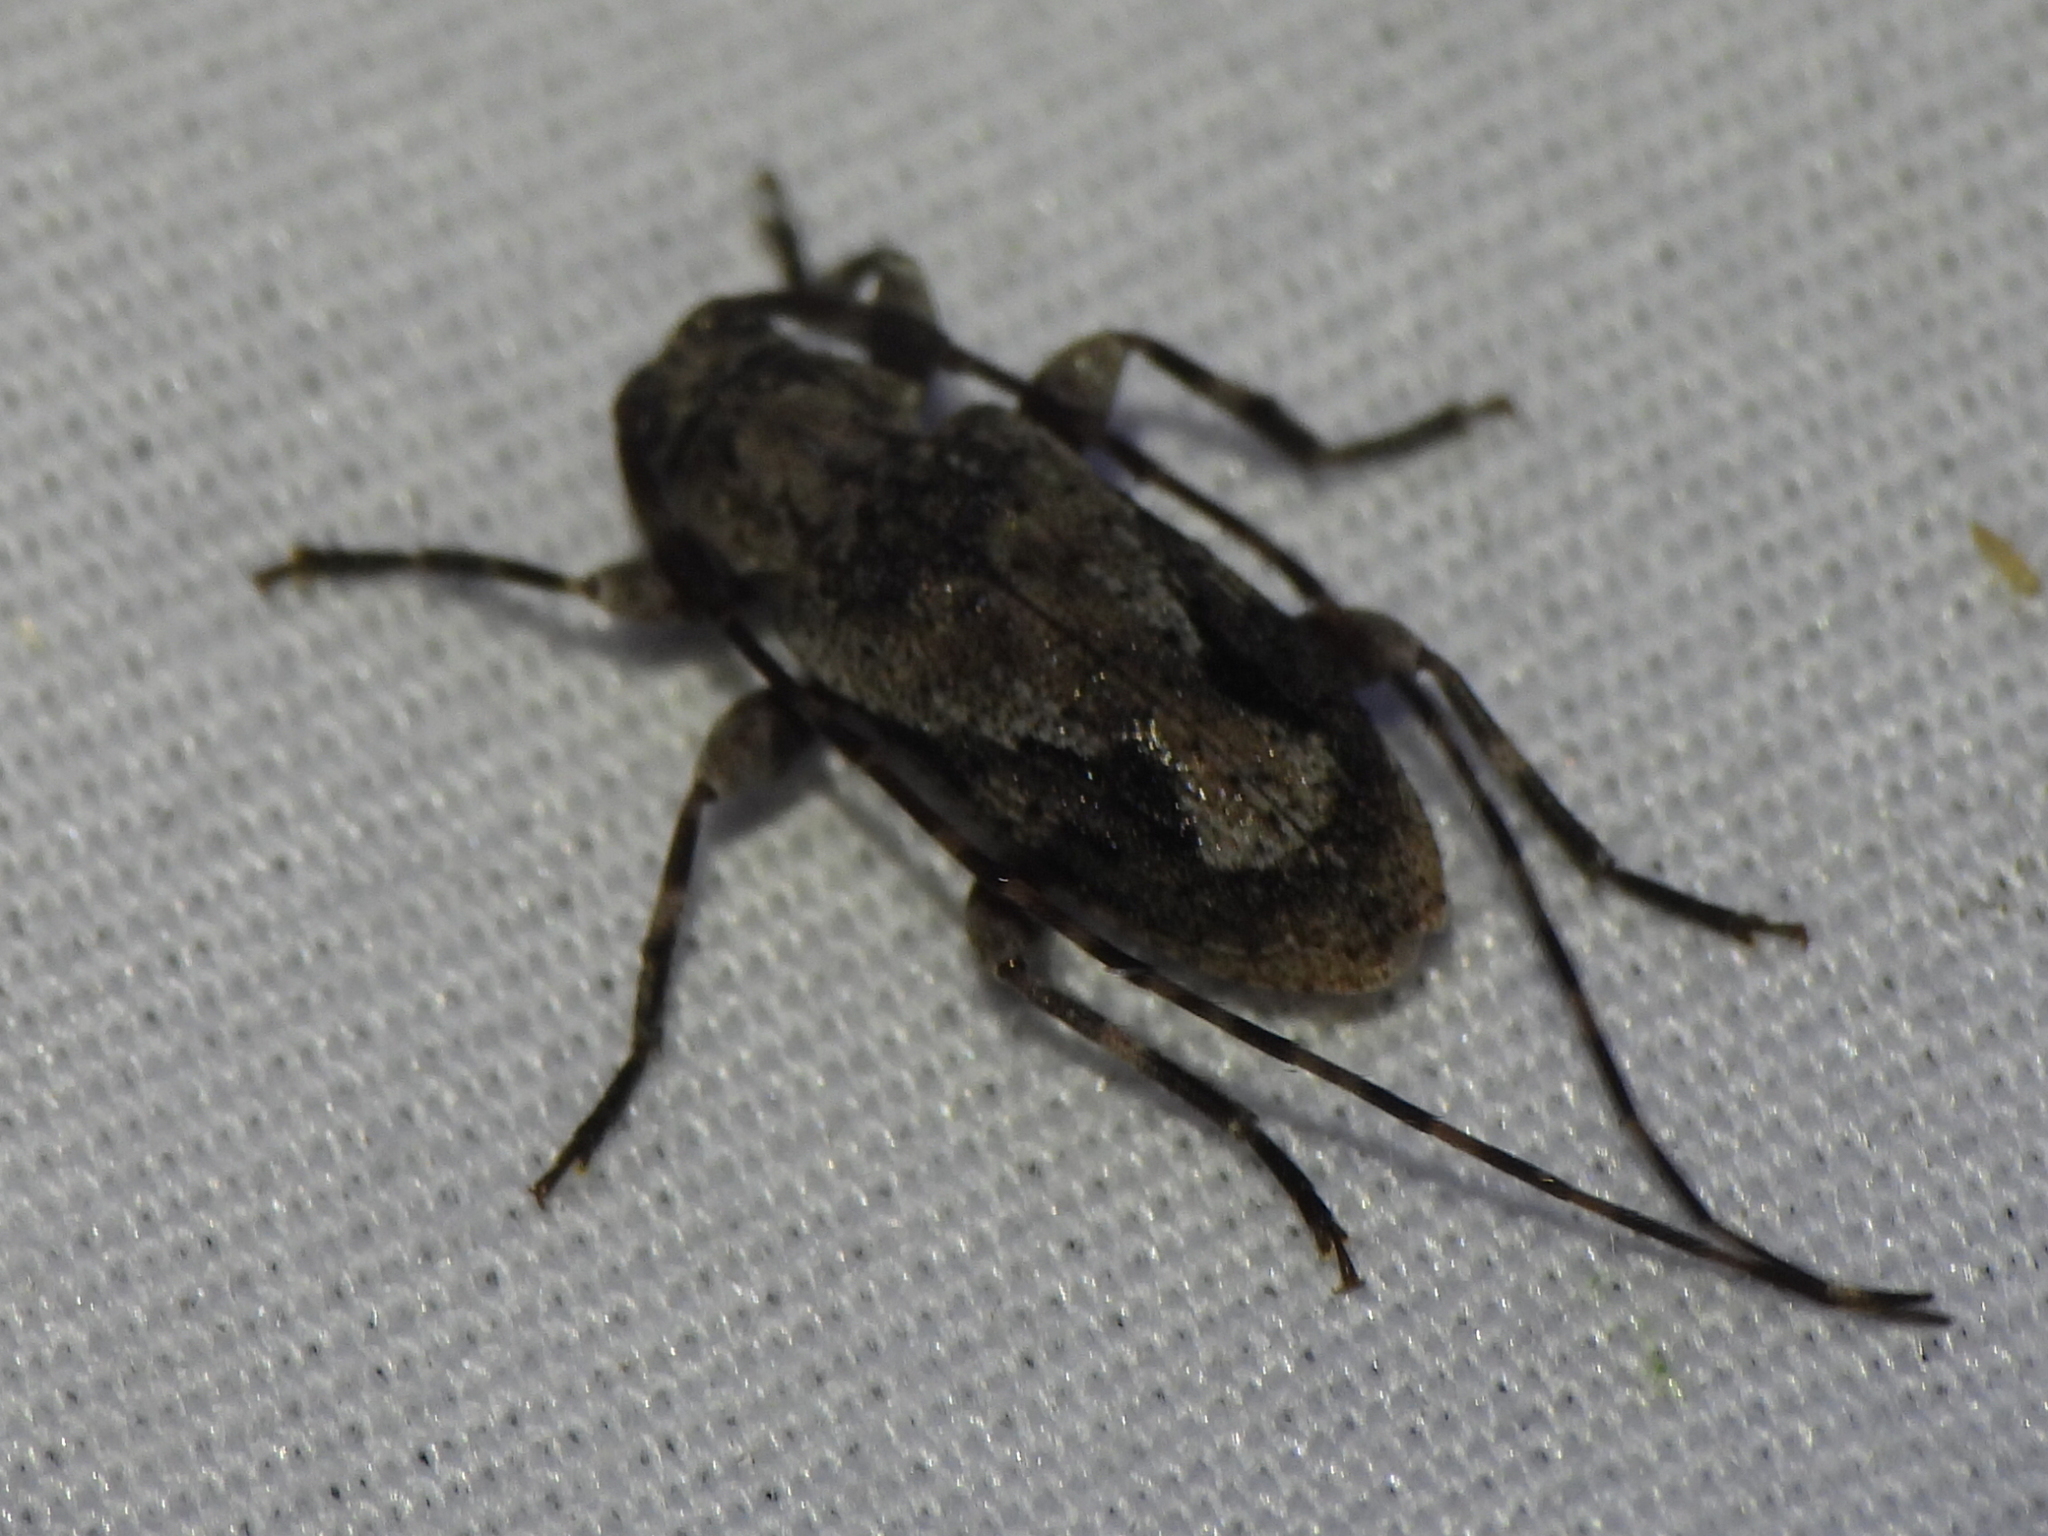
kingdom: Animalia
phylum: Arthropoda
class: Insecta
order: Coleoptera
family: Cerambycidae
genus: Eutrichillus
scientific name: Eutrichillus canescens
